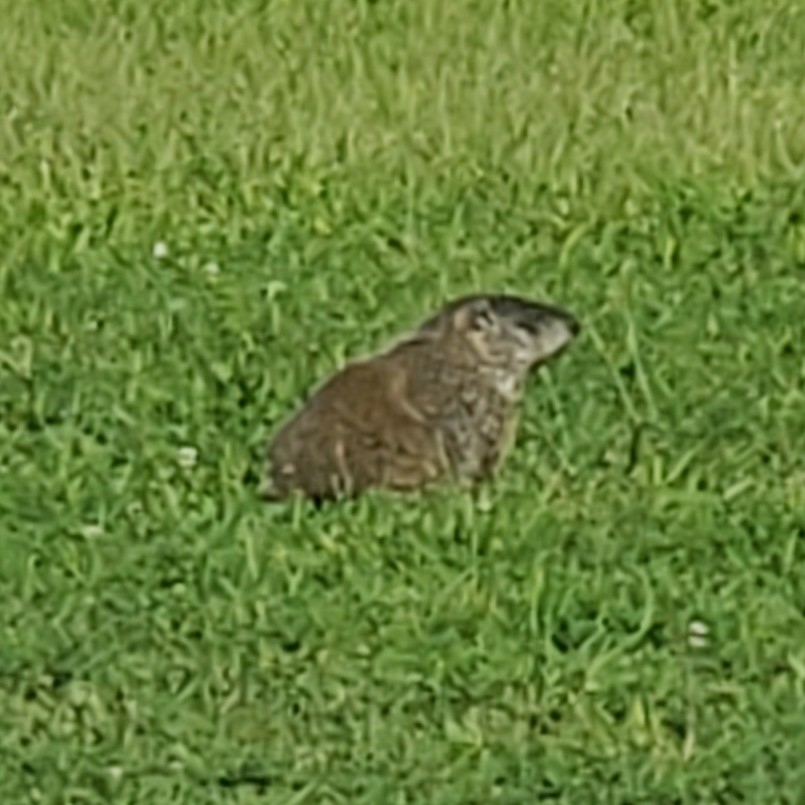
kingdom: Animalia
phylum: Chordata
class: Mammalia
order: Rodentia
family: Sciuridae
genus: Marmota
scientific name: Marmota monax
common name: Groundhog
